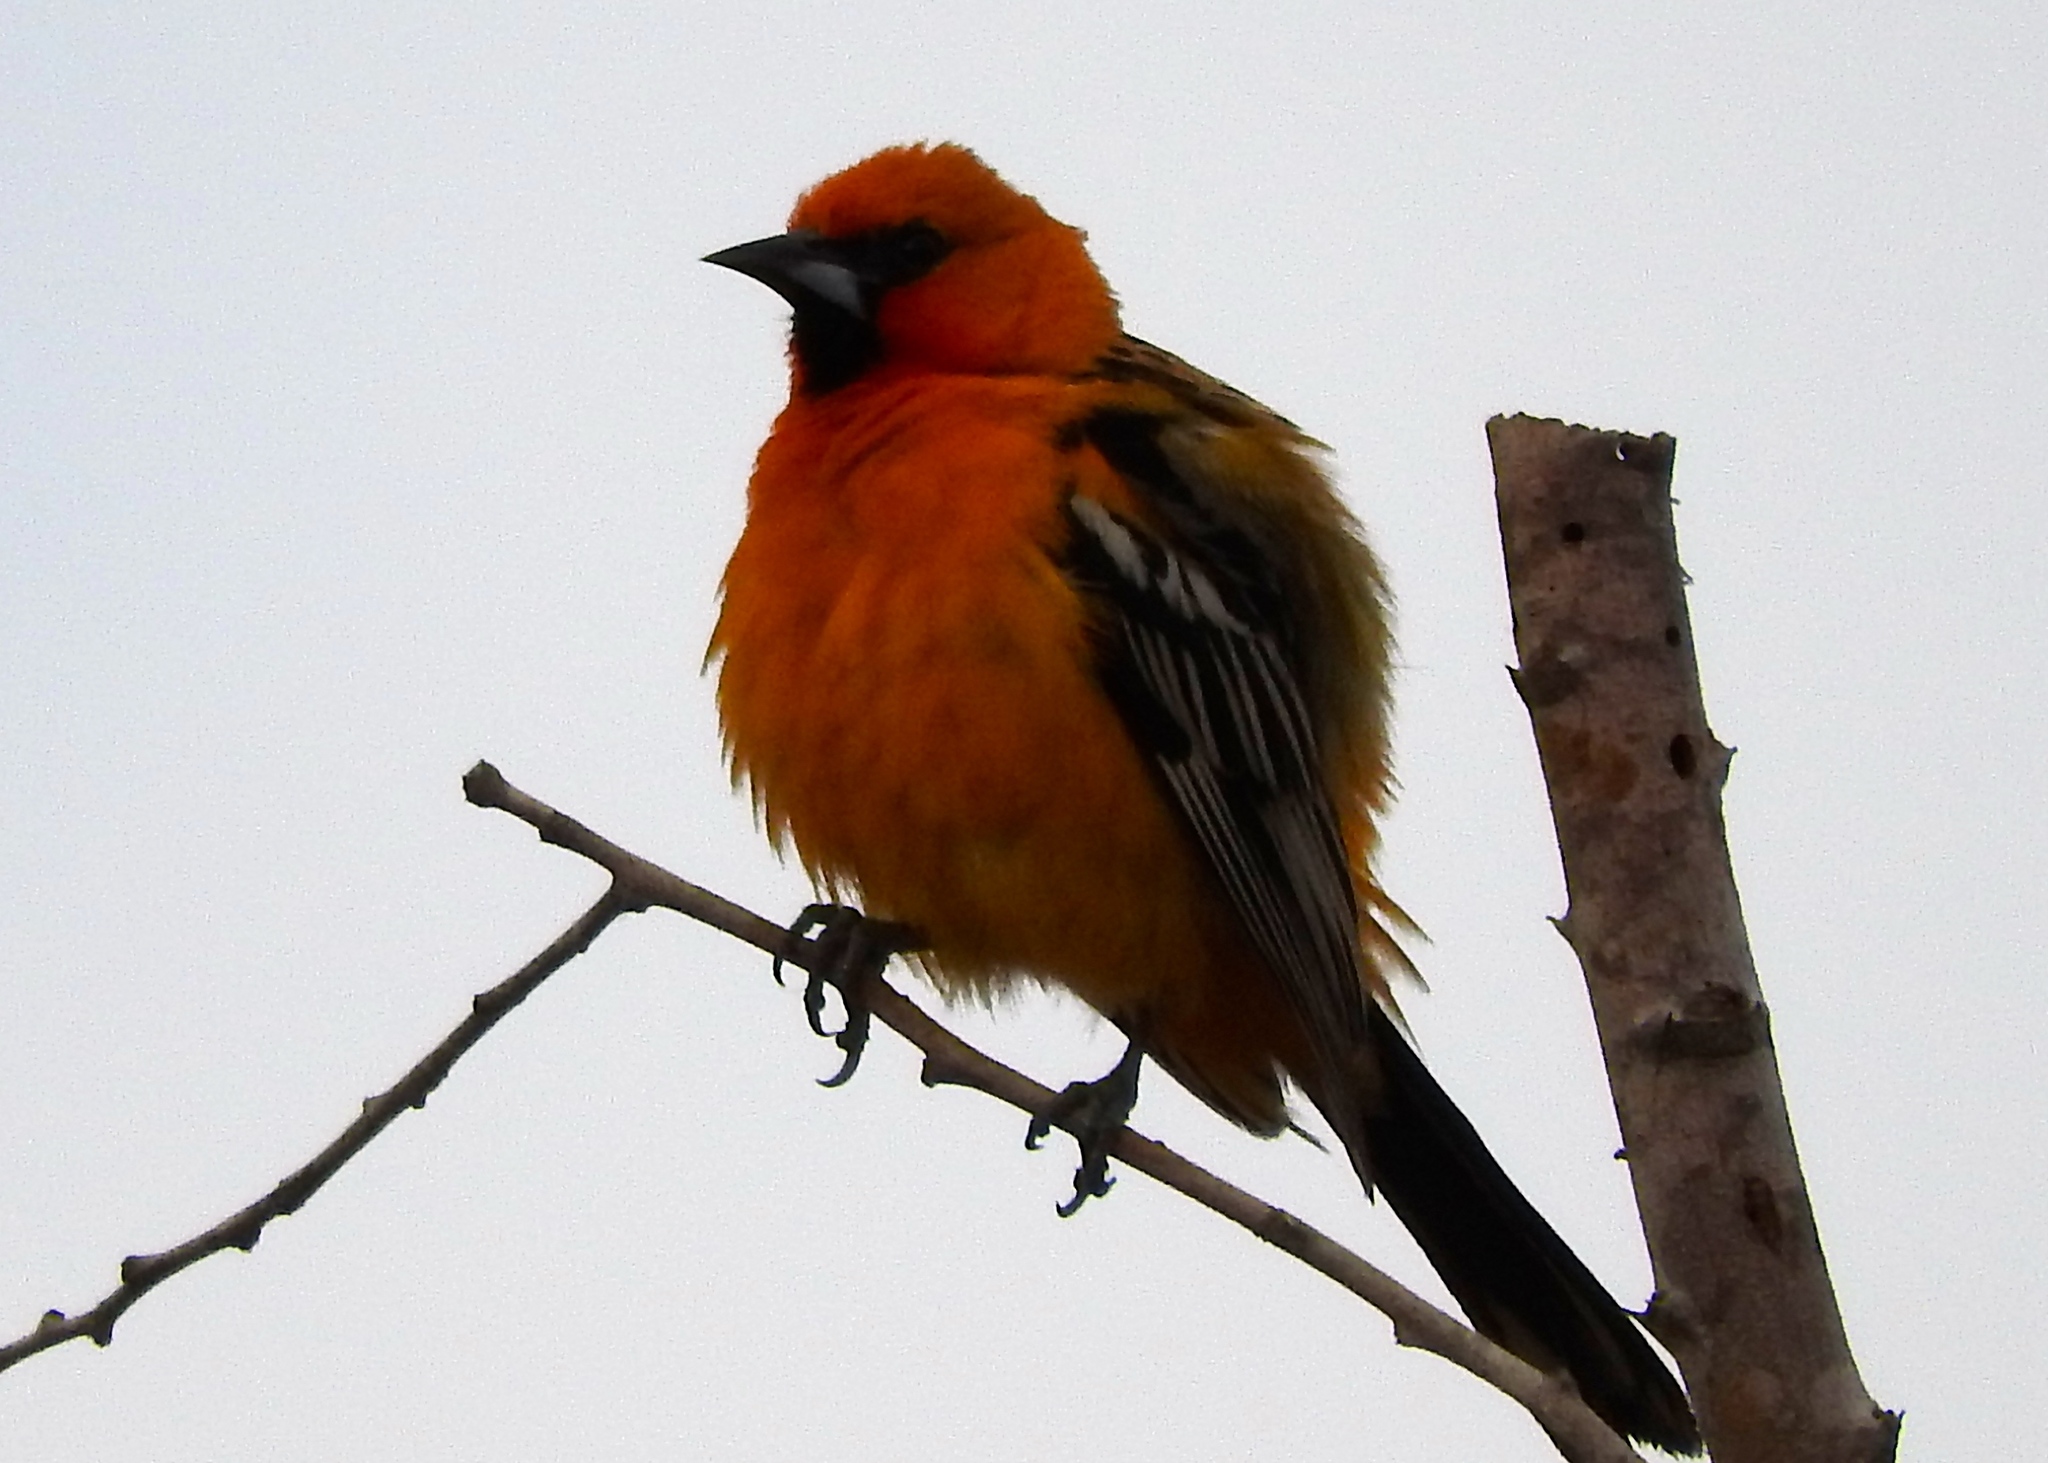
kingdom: Animalia
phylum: Chordata
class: Aves
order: Passeriformes
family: Icteridae
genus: Icterus
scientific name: Icterus pustulatus
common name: Streak-backed oriole
